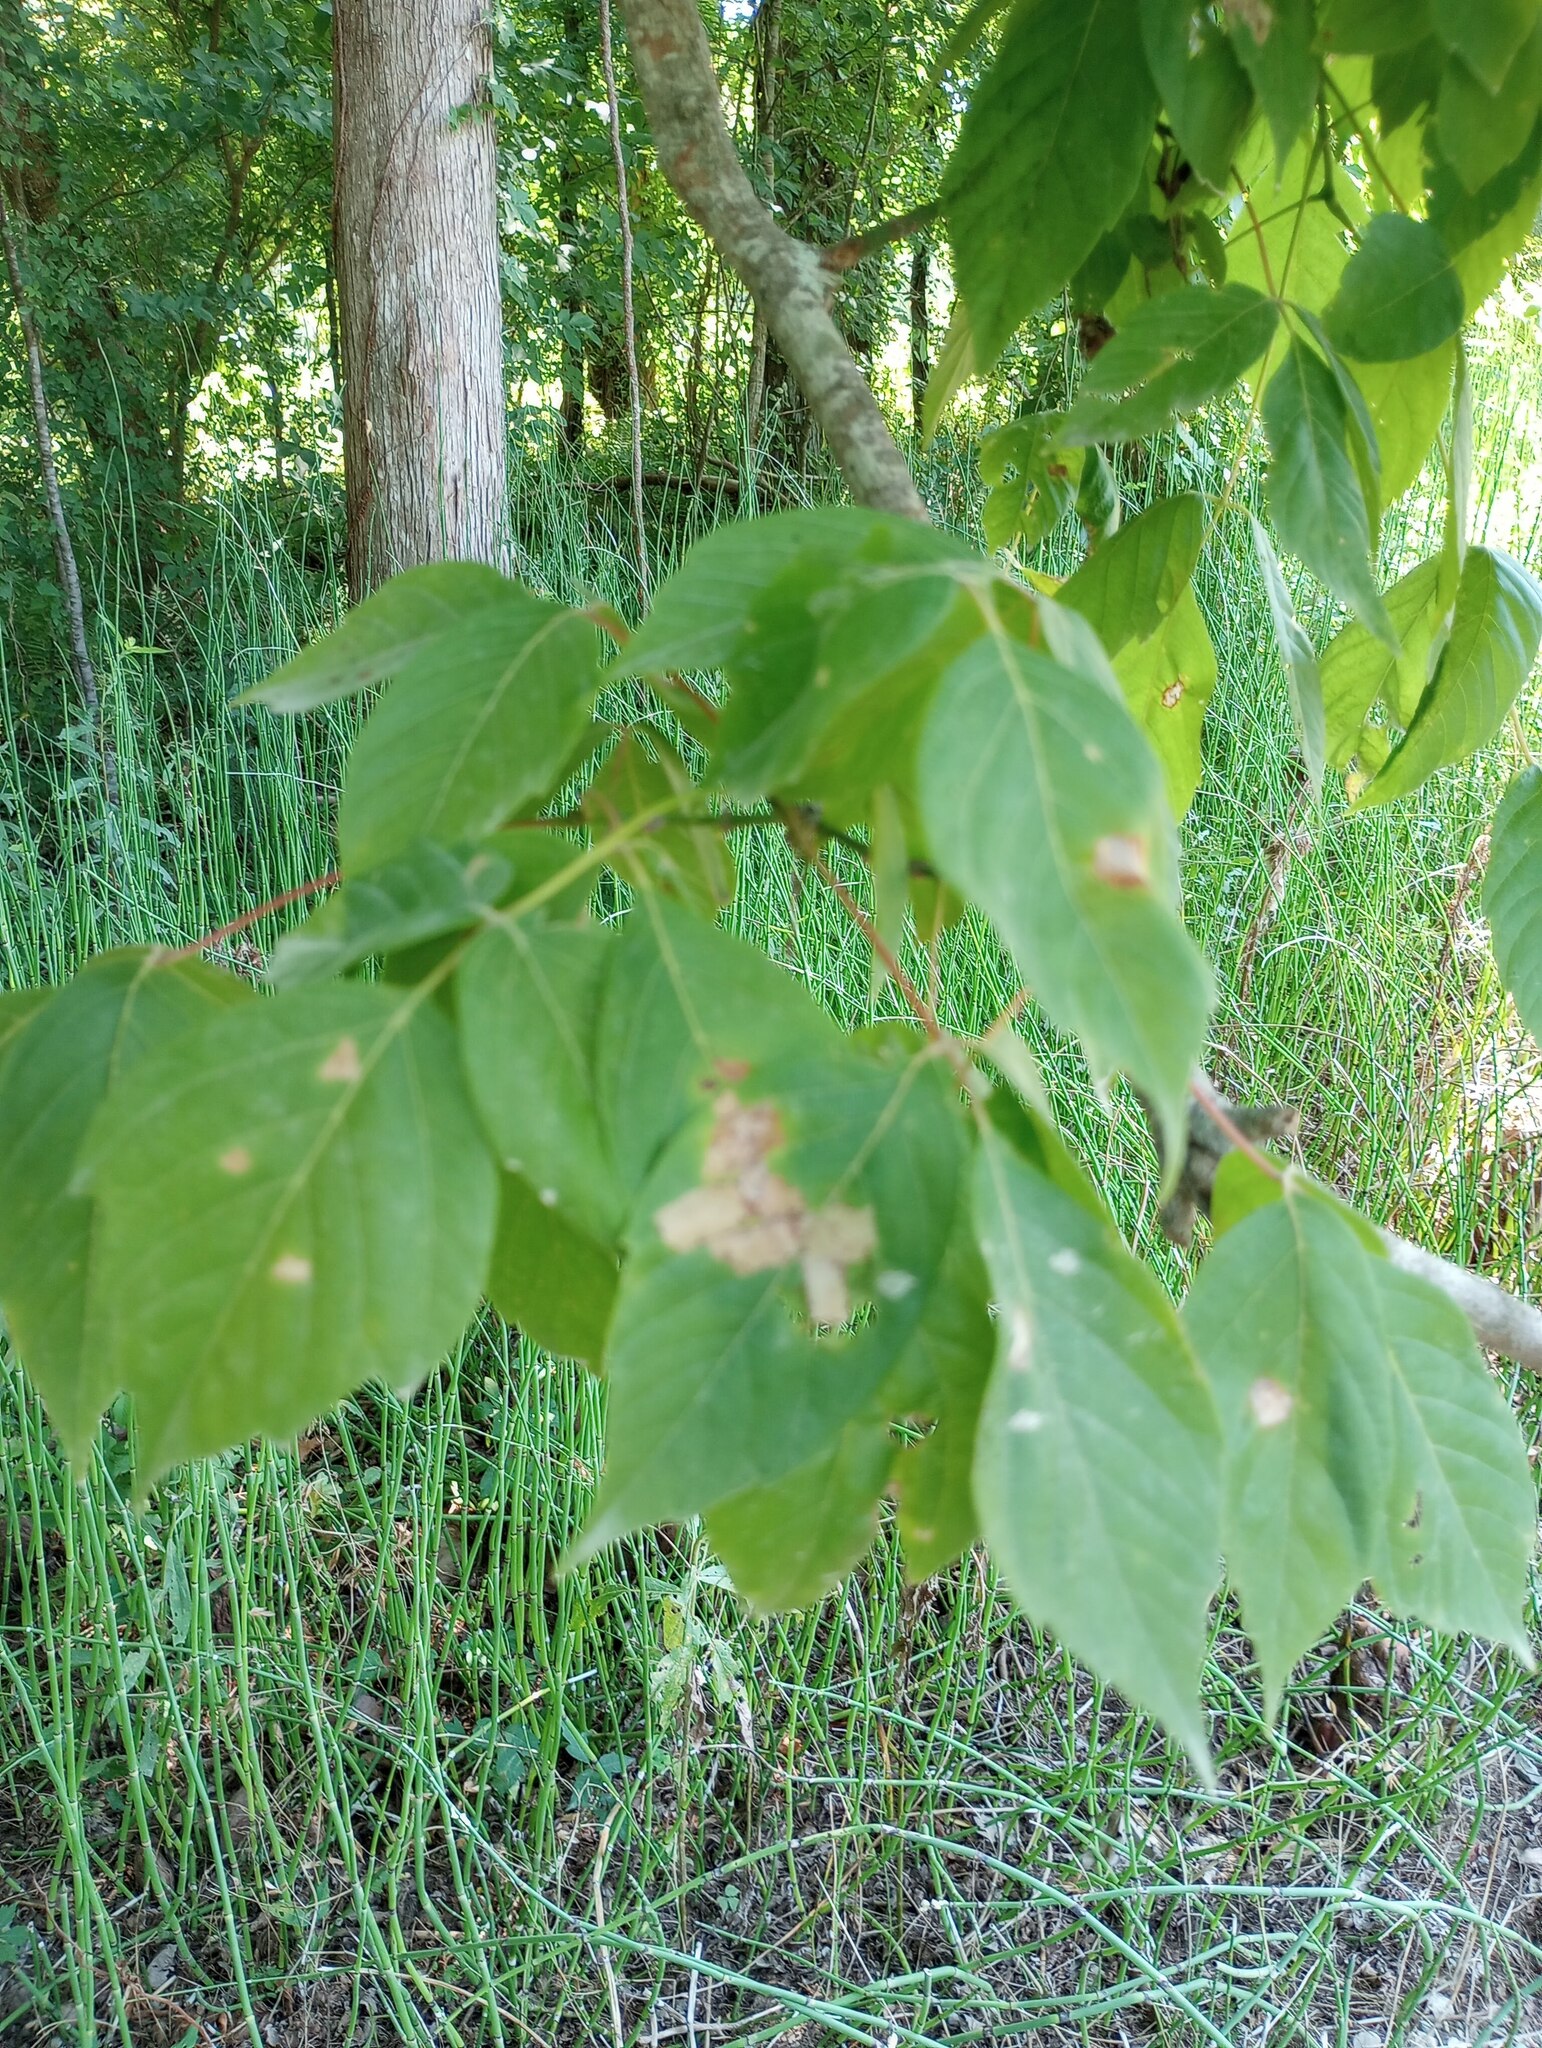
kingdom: Plantae
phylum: Tracheophyta
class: Magnoliopsida
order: Sapindales
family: Sapindaceae
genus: Acer
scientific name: Acer negundo
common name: Ashleaf maple
